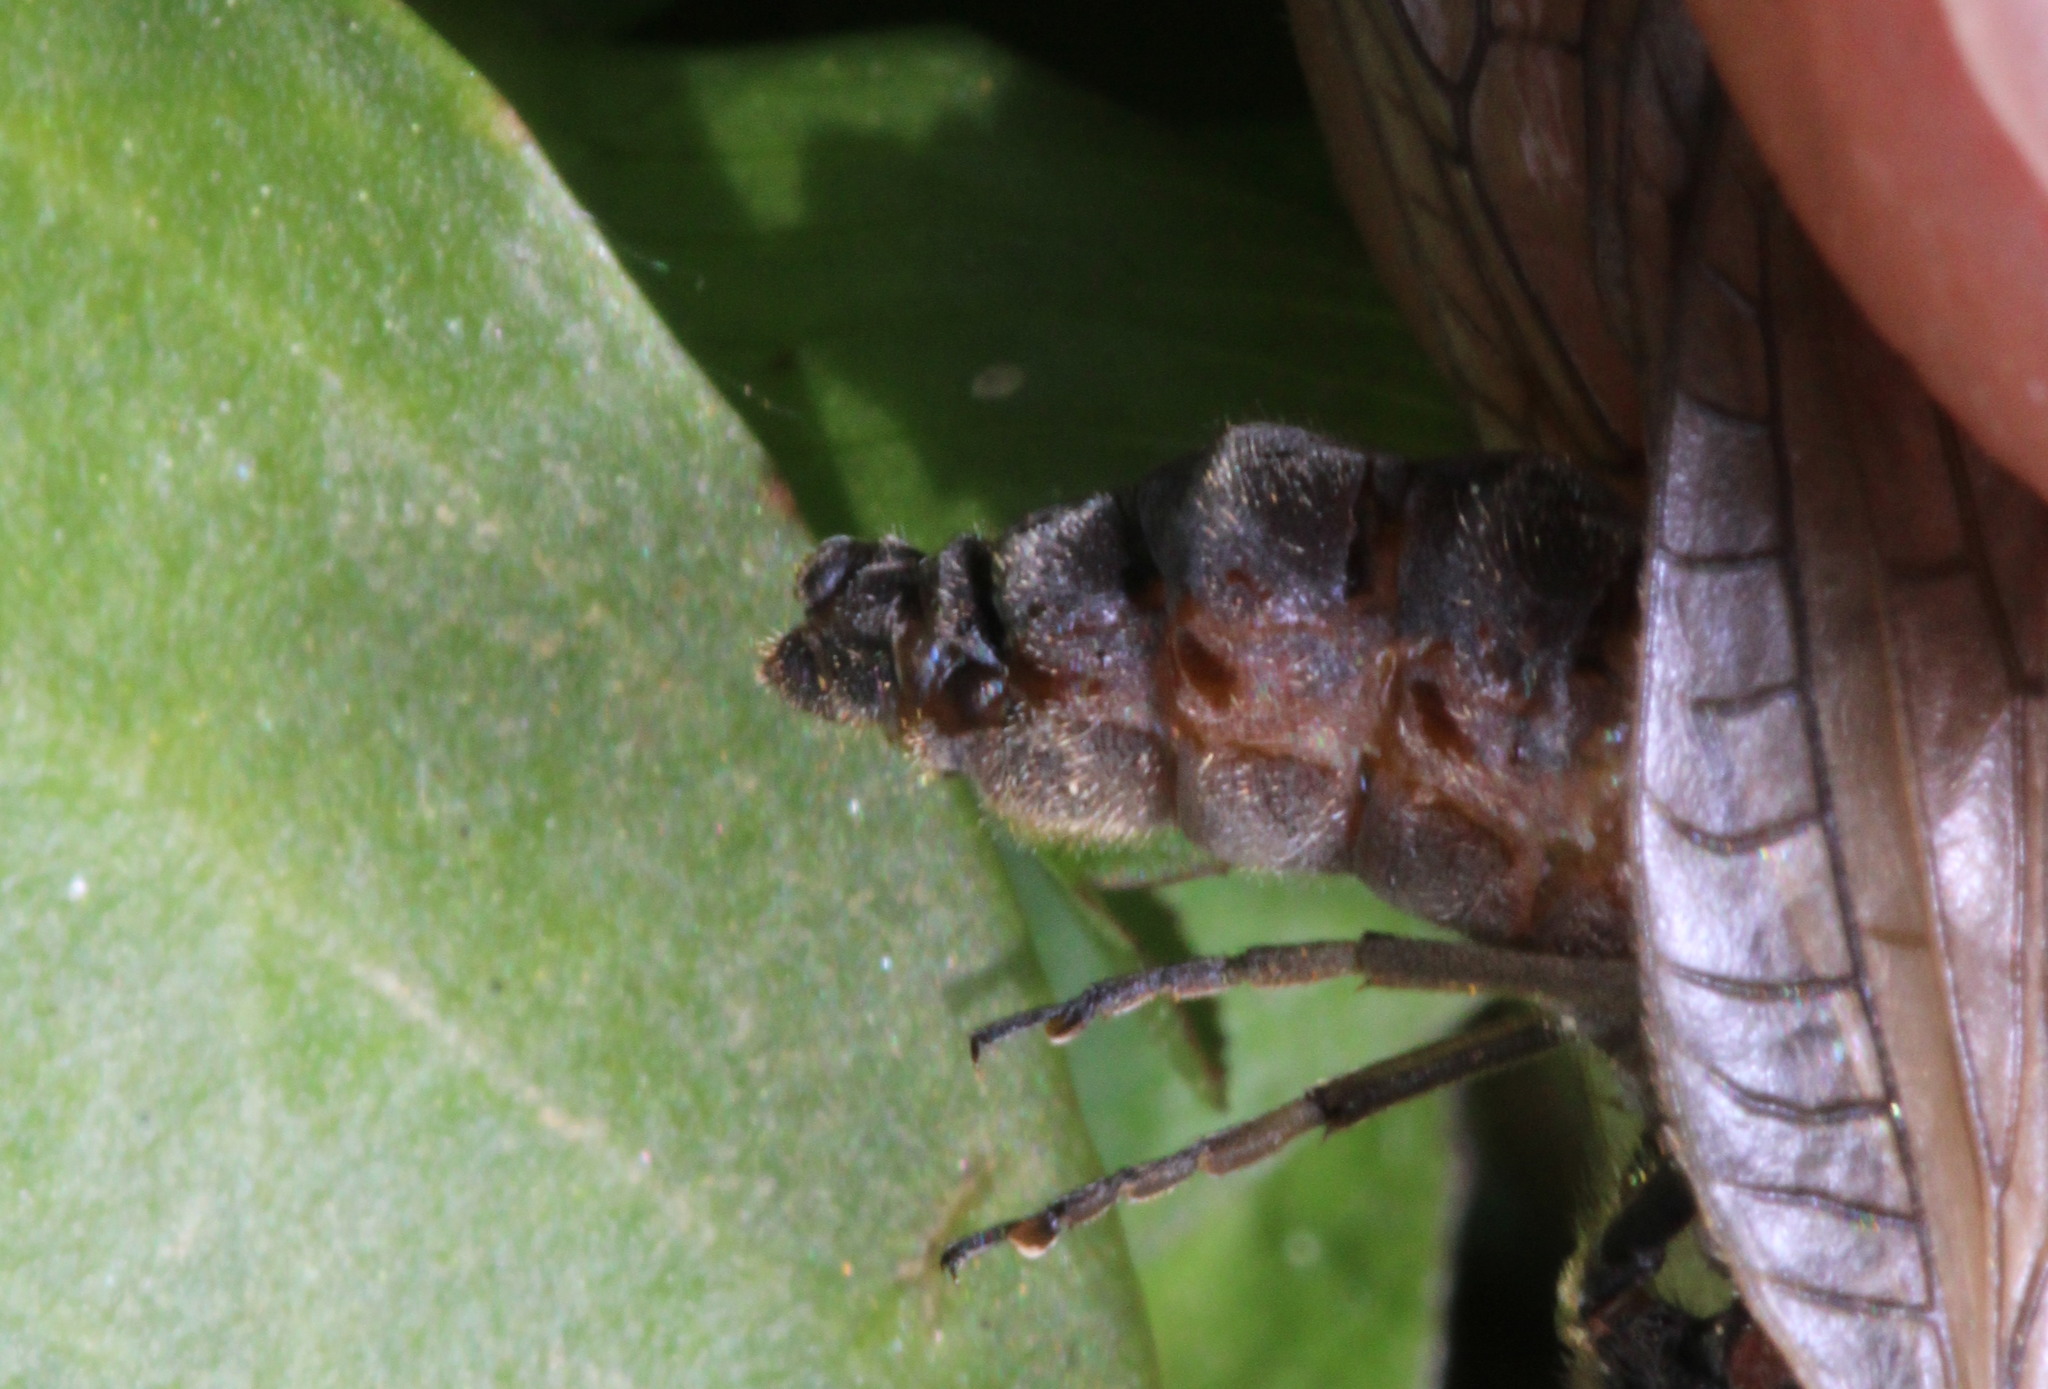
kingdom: Animalia
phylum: Arthropoda
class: Insecta
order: Megaloptera
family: Sialidae
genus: Sialis
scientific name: Sialis lutaria
